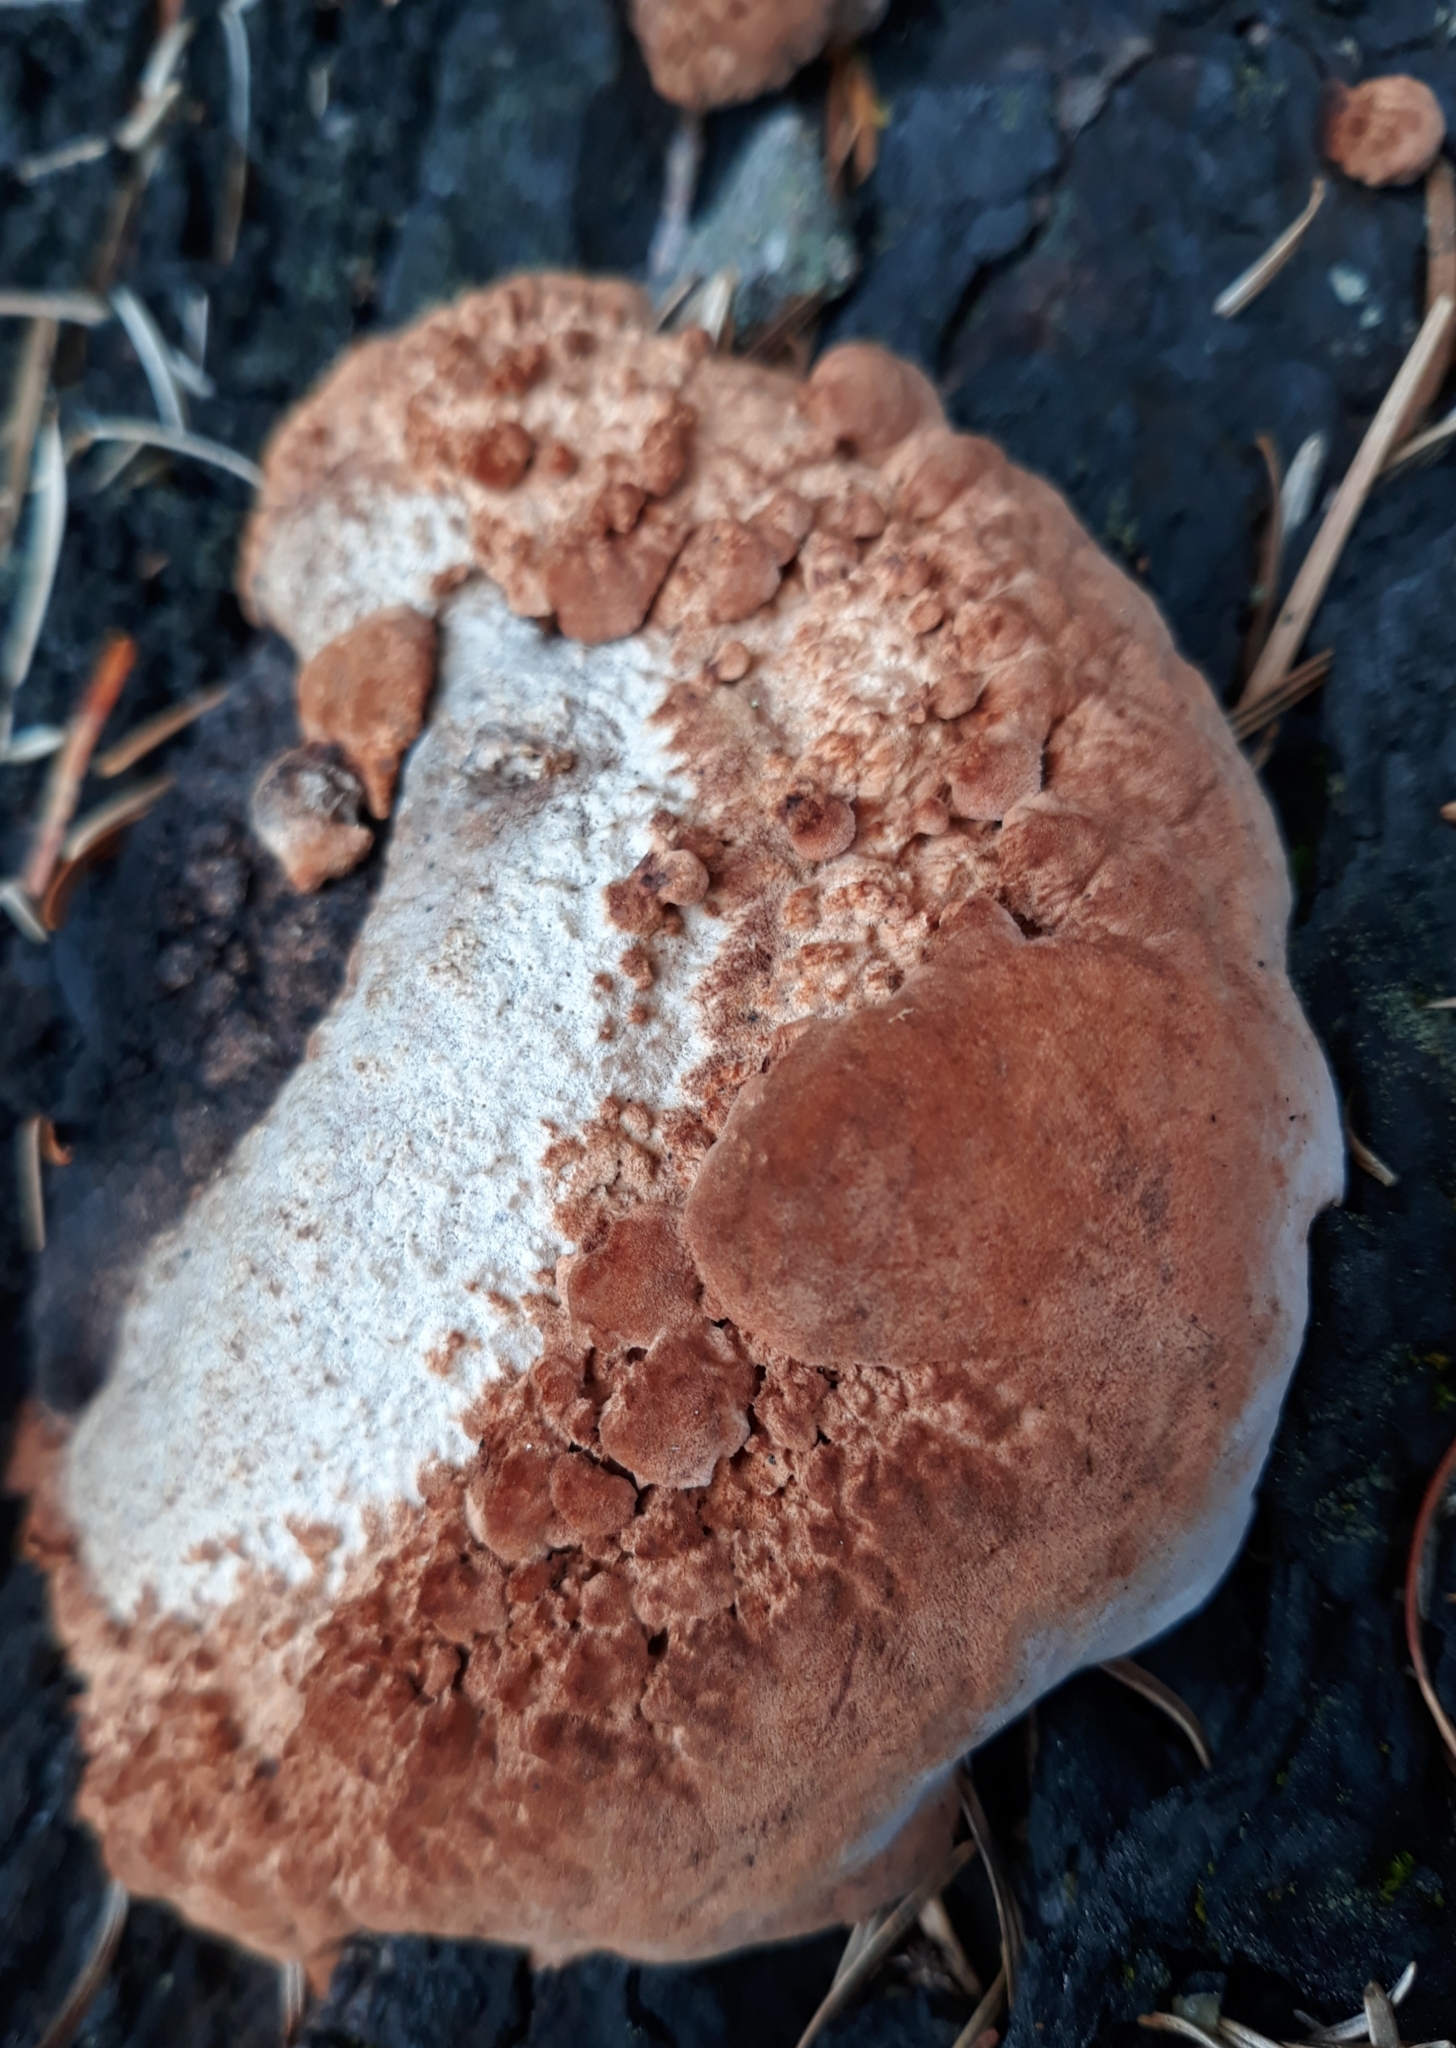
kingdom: Fungi
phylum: Basidiomycota
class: Agaricomycetes
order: Polyporales
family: Fomitopsidaceae
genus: Rhodofomes
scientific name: Rhodofomes cajanderi
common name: Rosy conk
